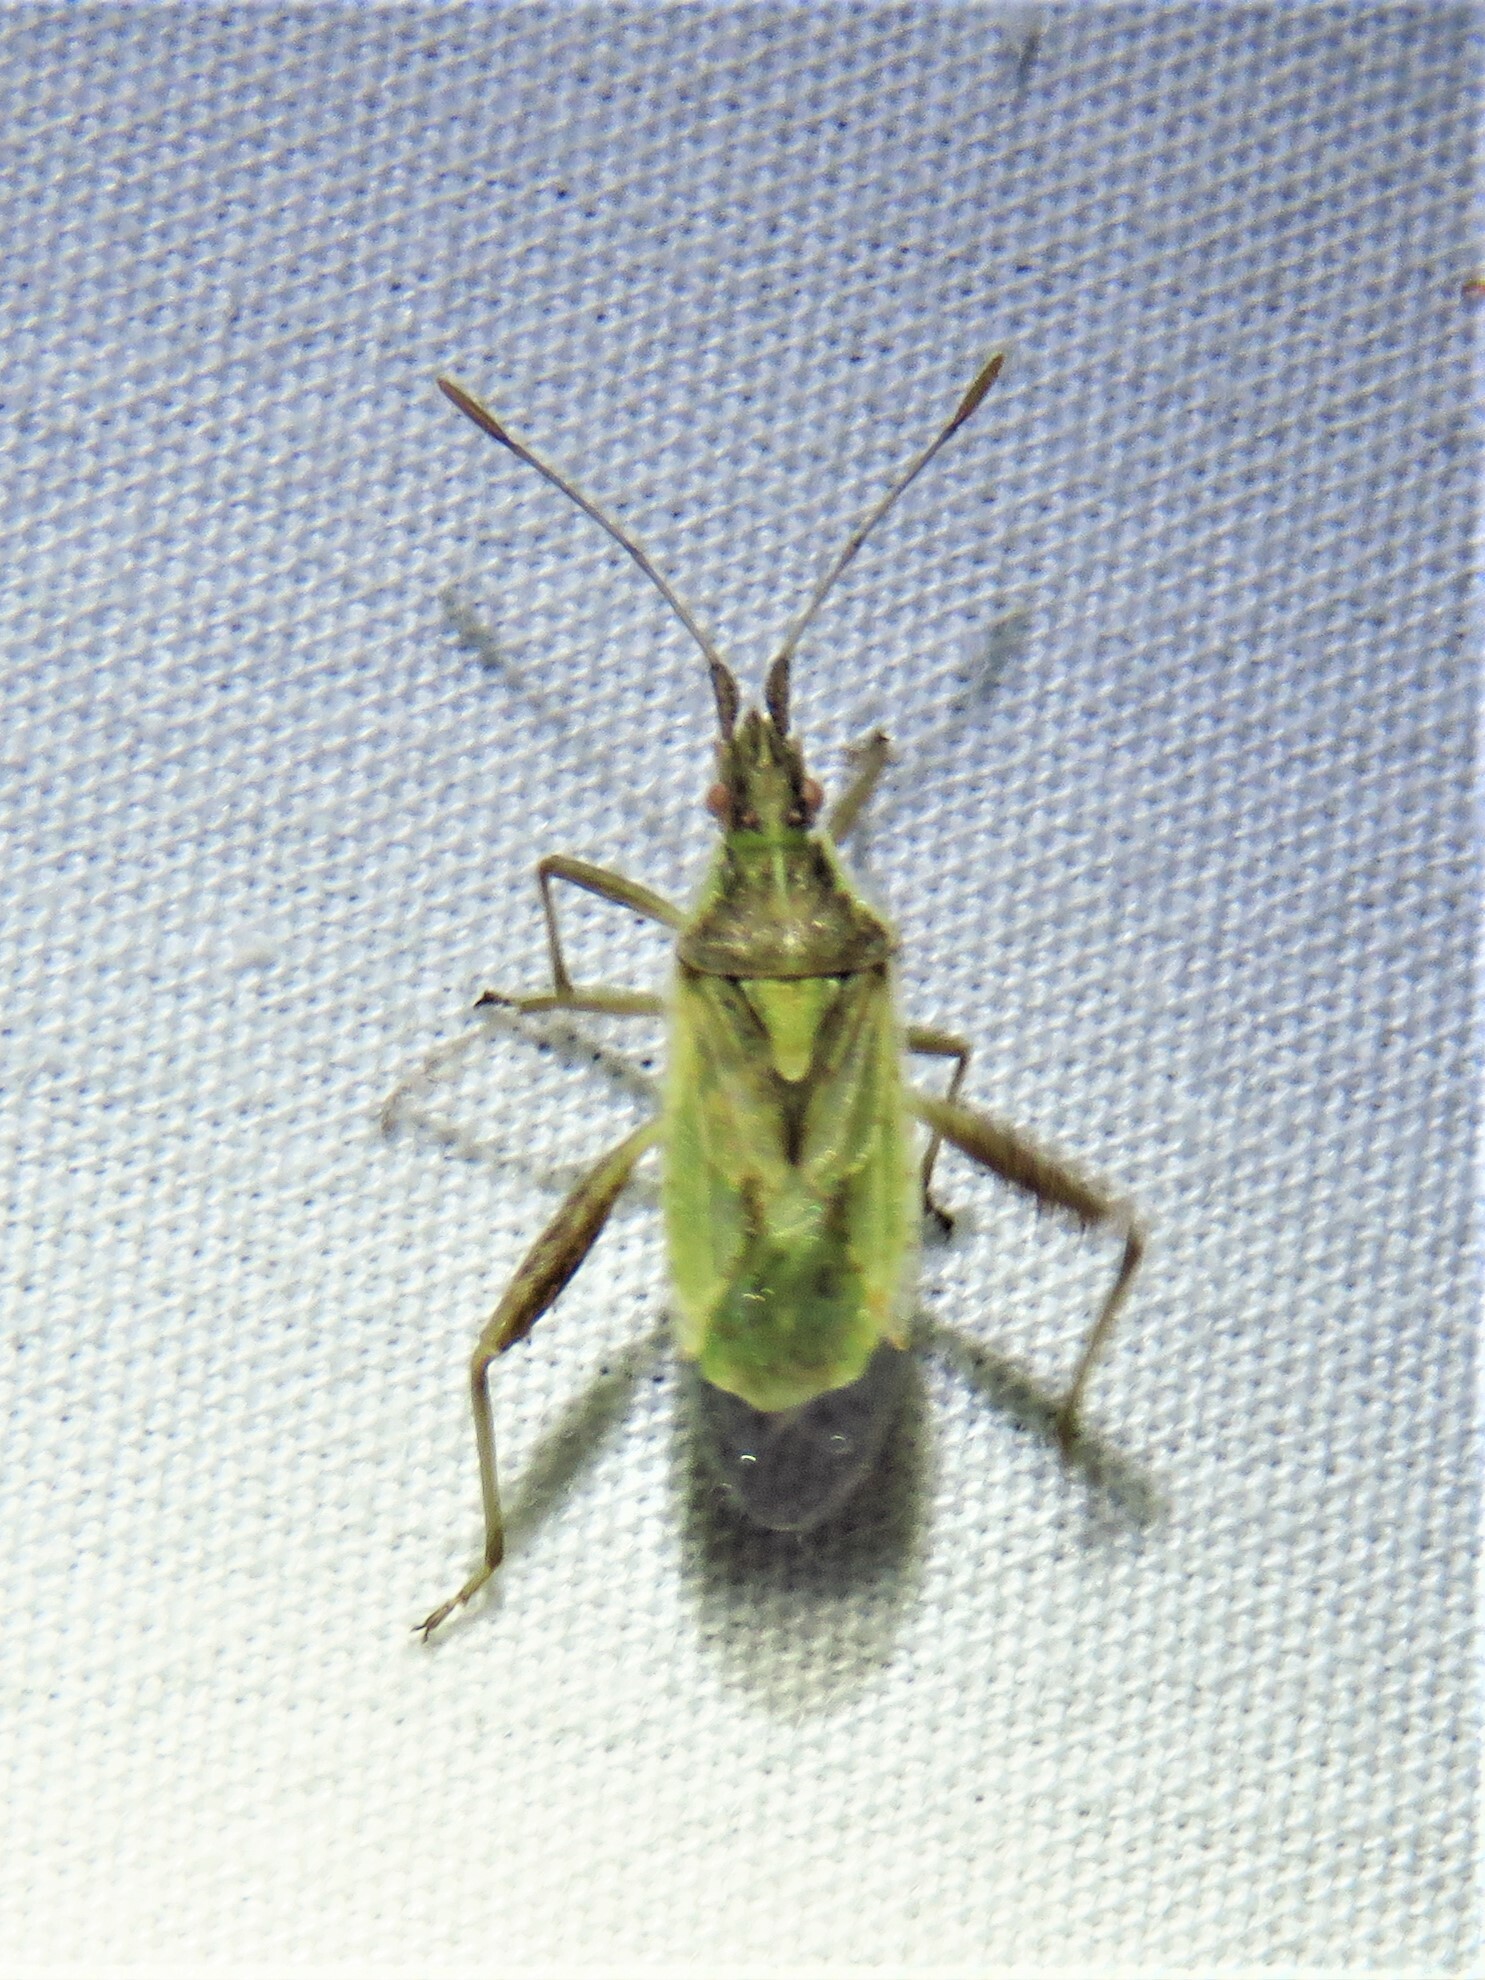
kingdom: Animalia
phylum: Arthropoda
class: Insecta
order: Hemiptera
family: Rhopalidae
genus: Harmostes
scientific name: Harmostes reflexulus
